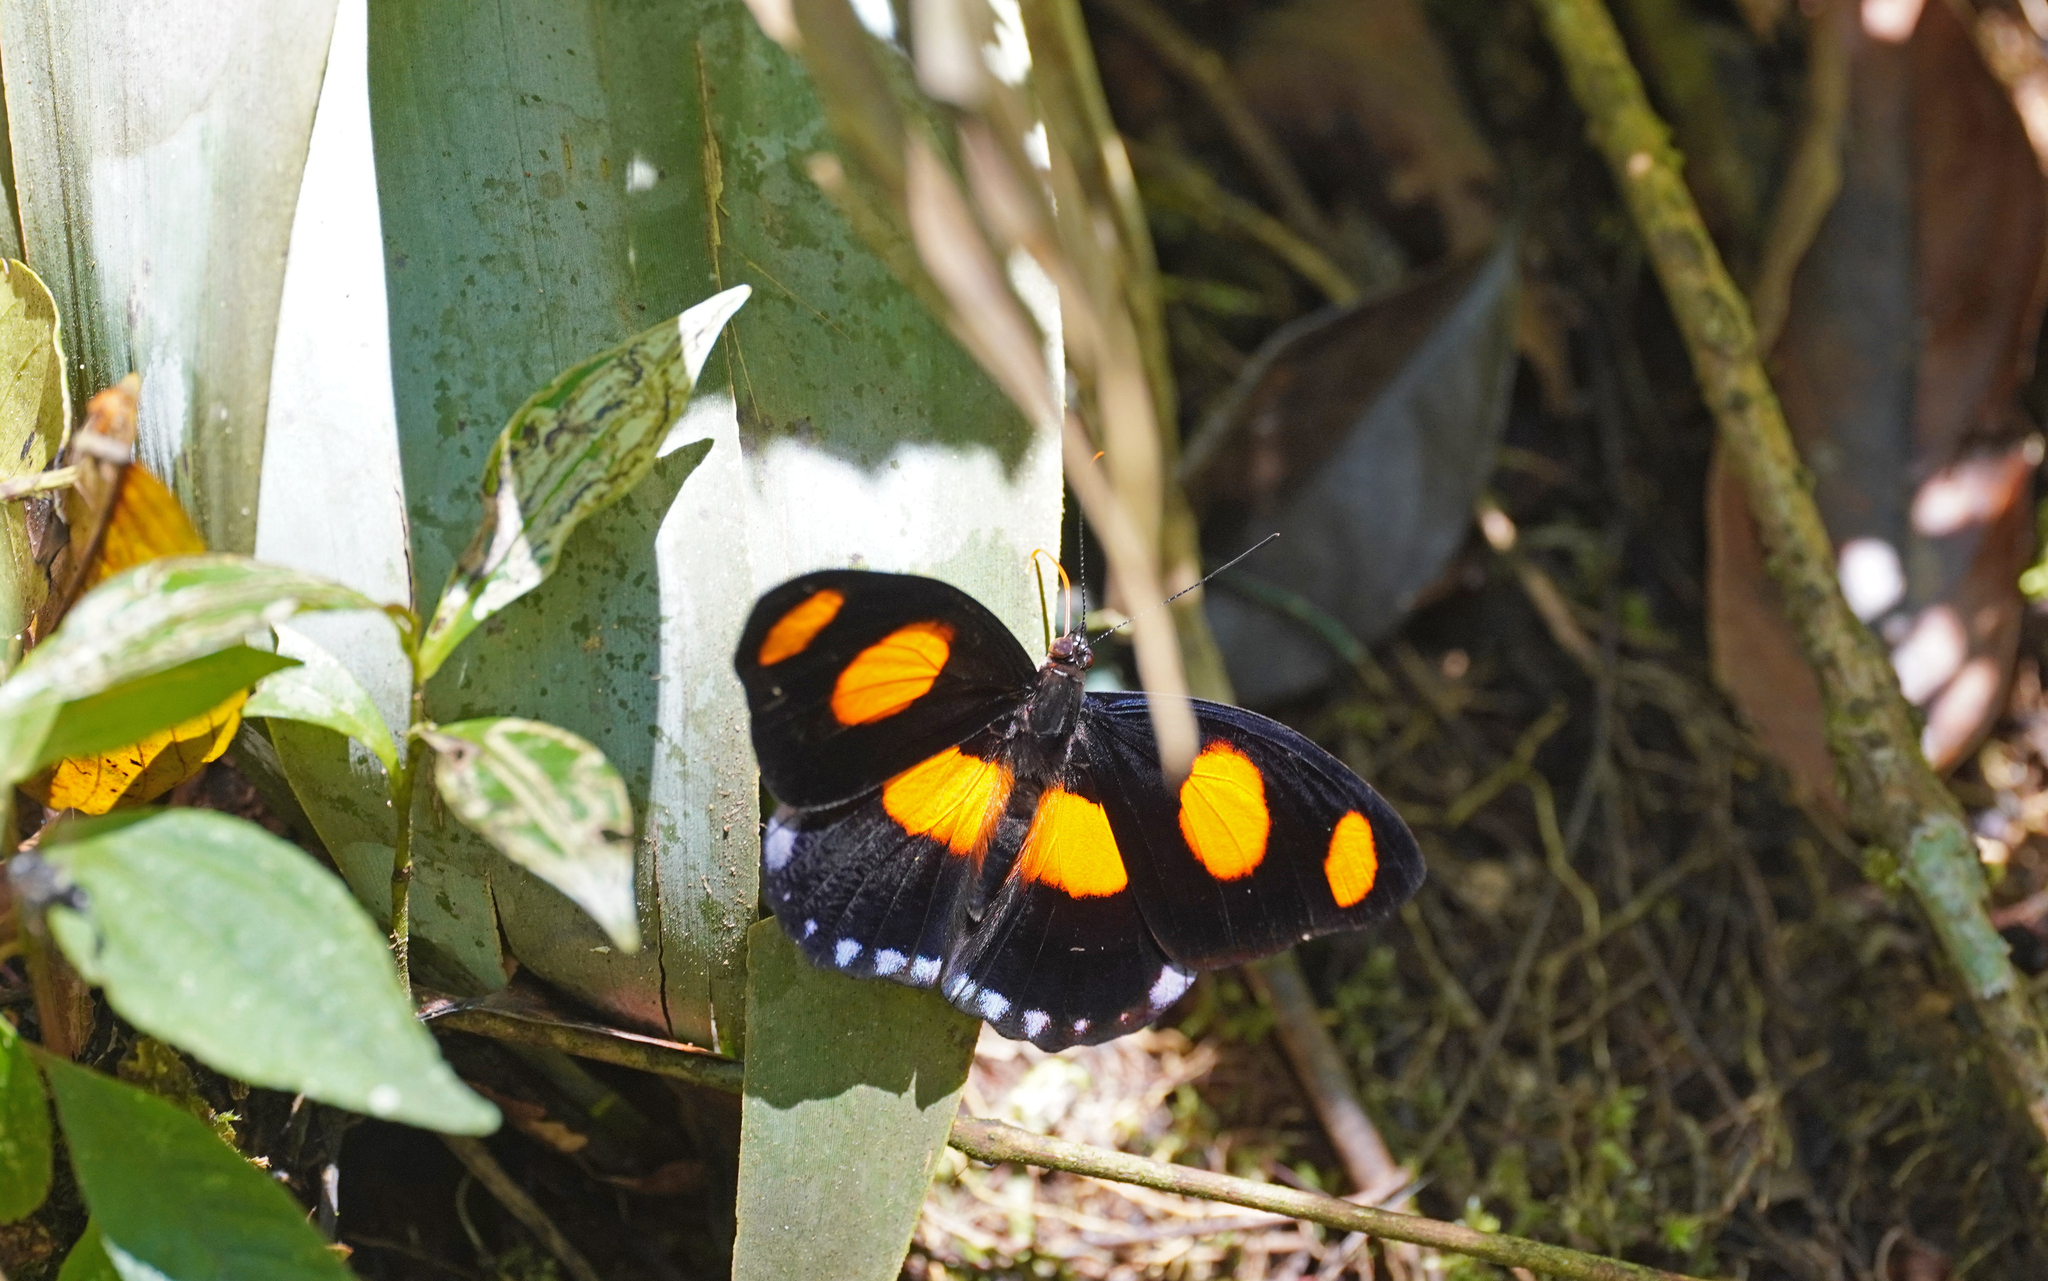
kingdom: Animalia
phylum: Arthropoda
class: Insecta
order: Lepidoptera
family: Nymphalidae
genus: Catonephele
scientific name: Catonephele numilia
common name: Blue-frosted banner
